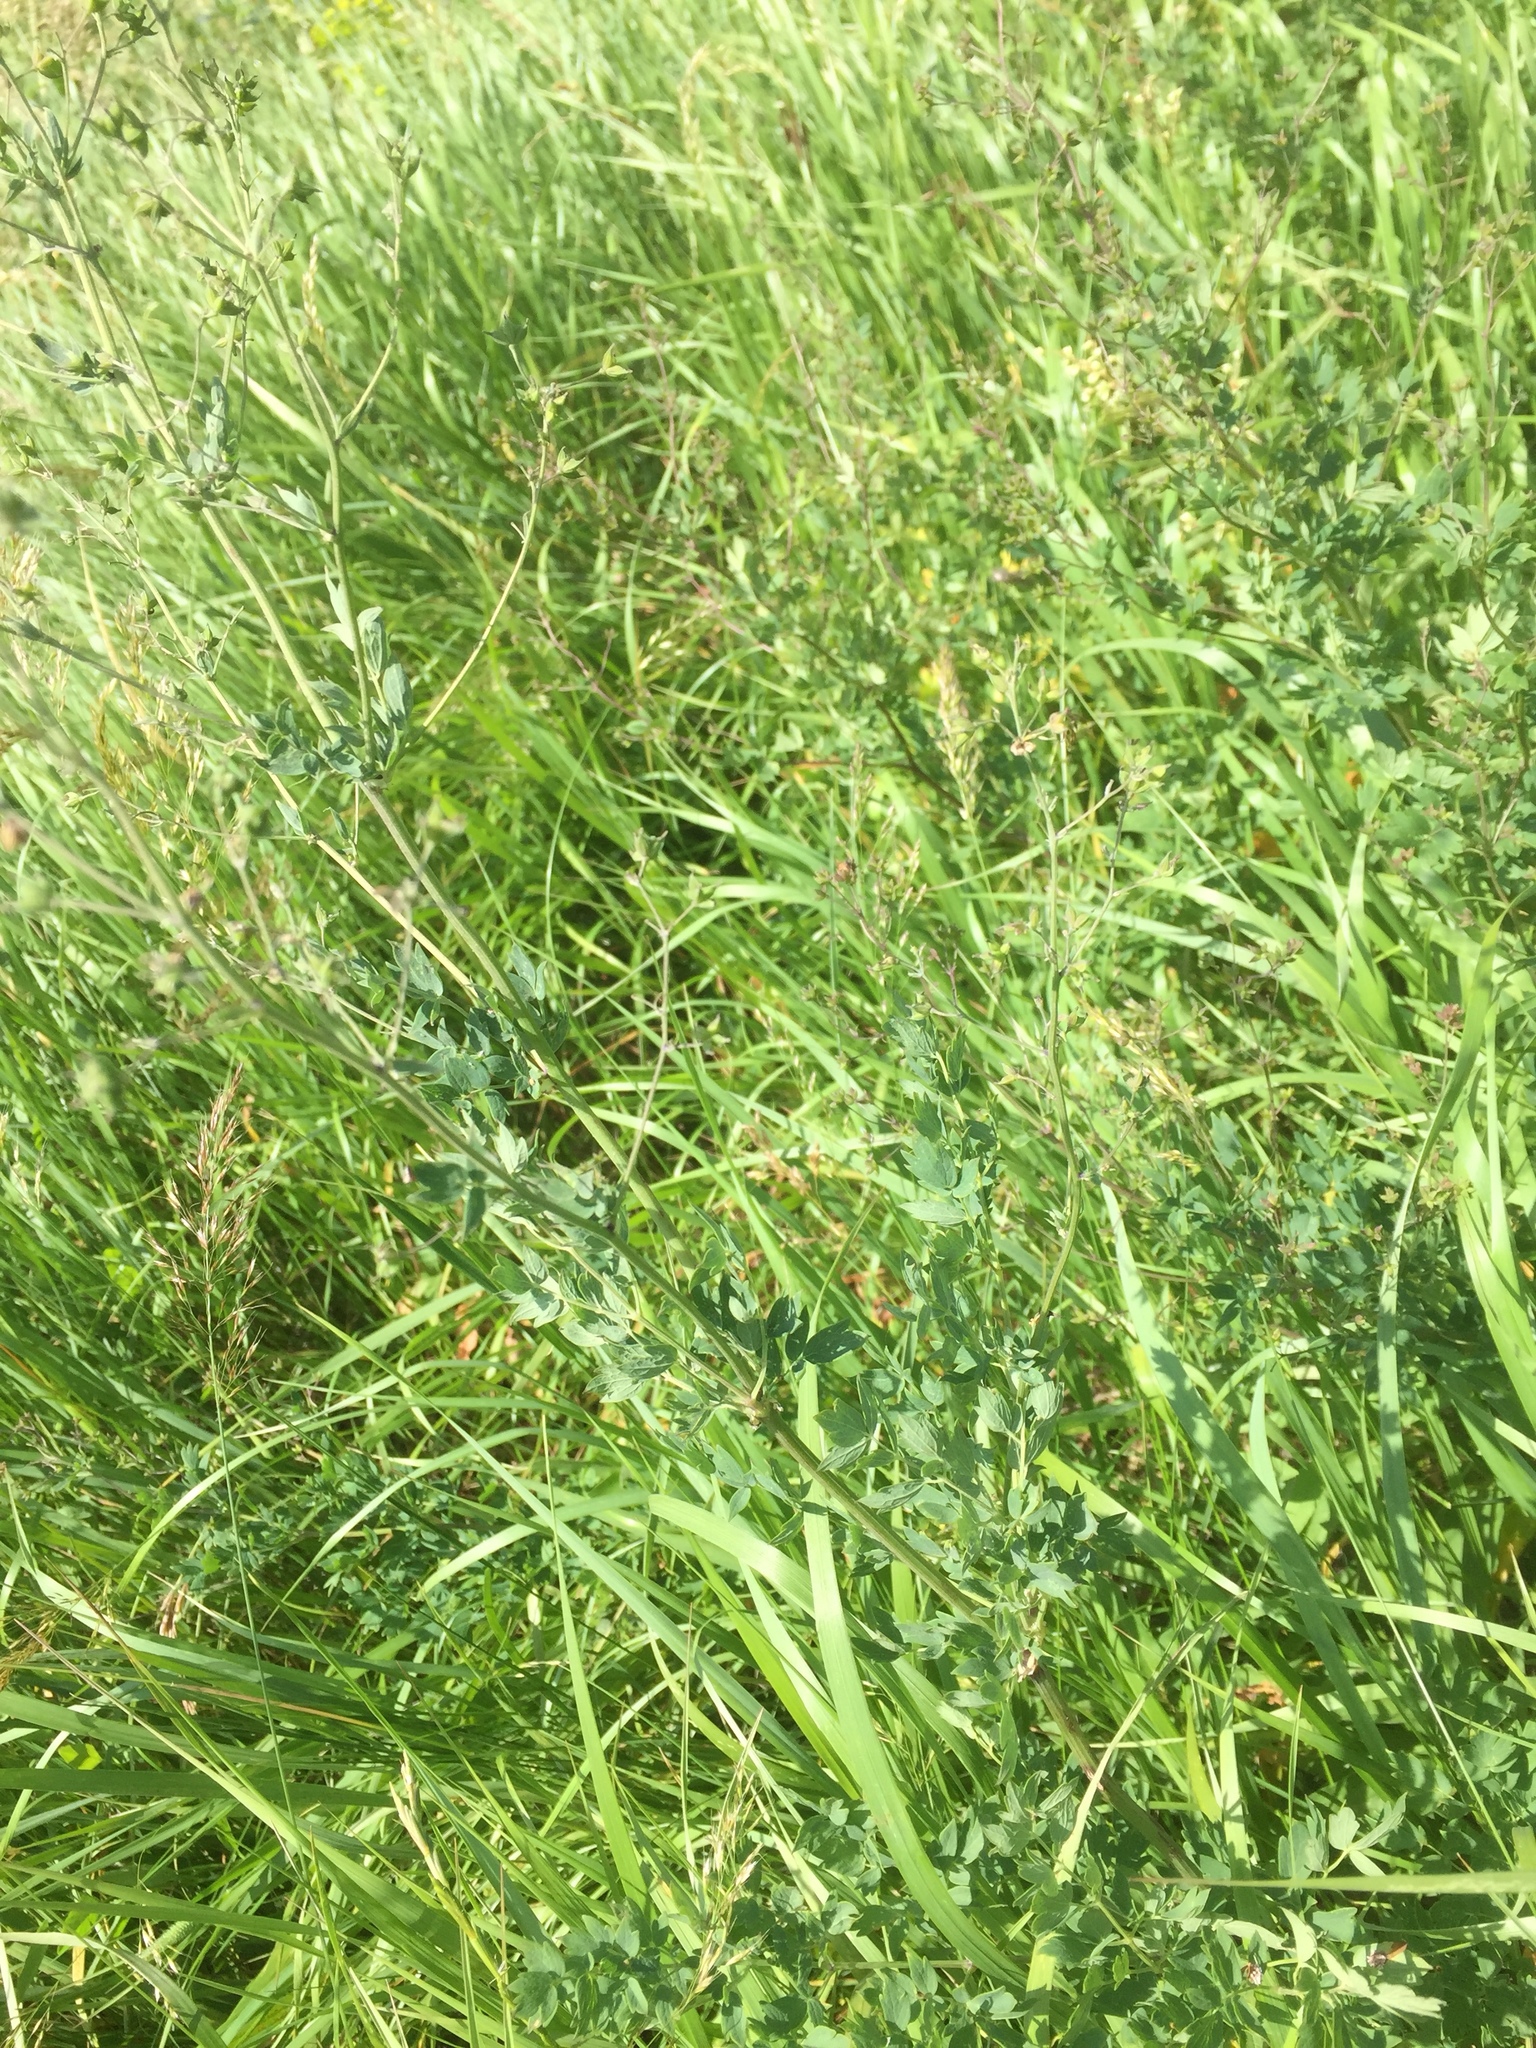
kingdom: Plantae
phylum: Tracheophyta
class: Magnoliopsida
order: Ranunculales
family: Ranunculaceae
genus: Thalictrum
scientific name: Thalictrum minus
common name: Lesser meadow-rue
